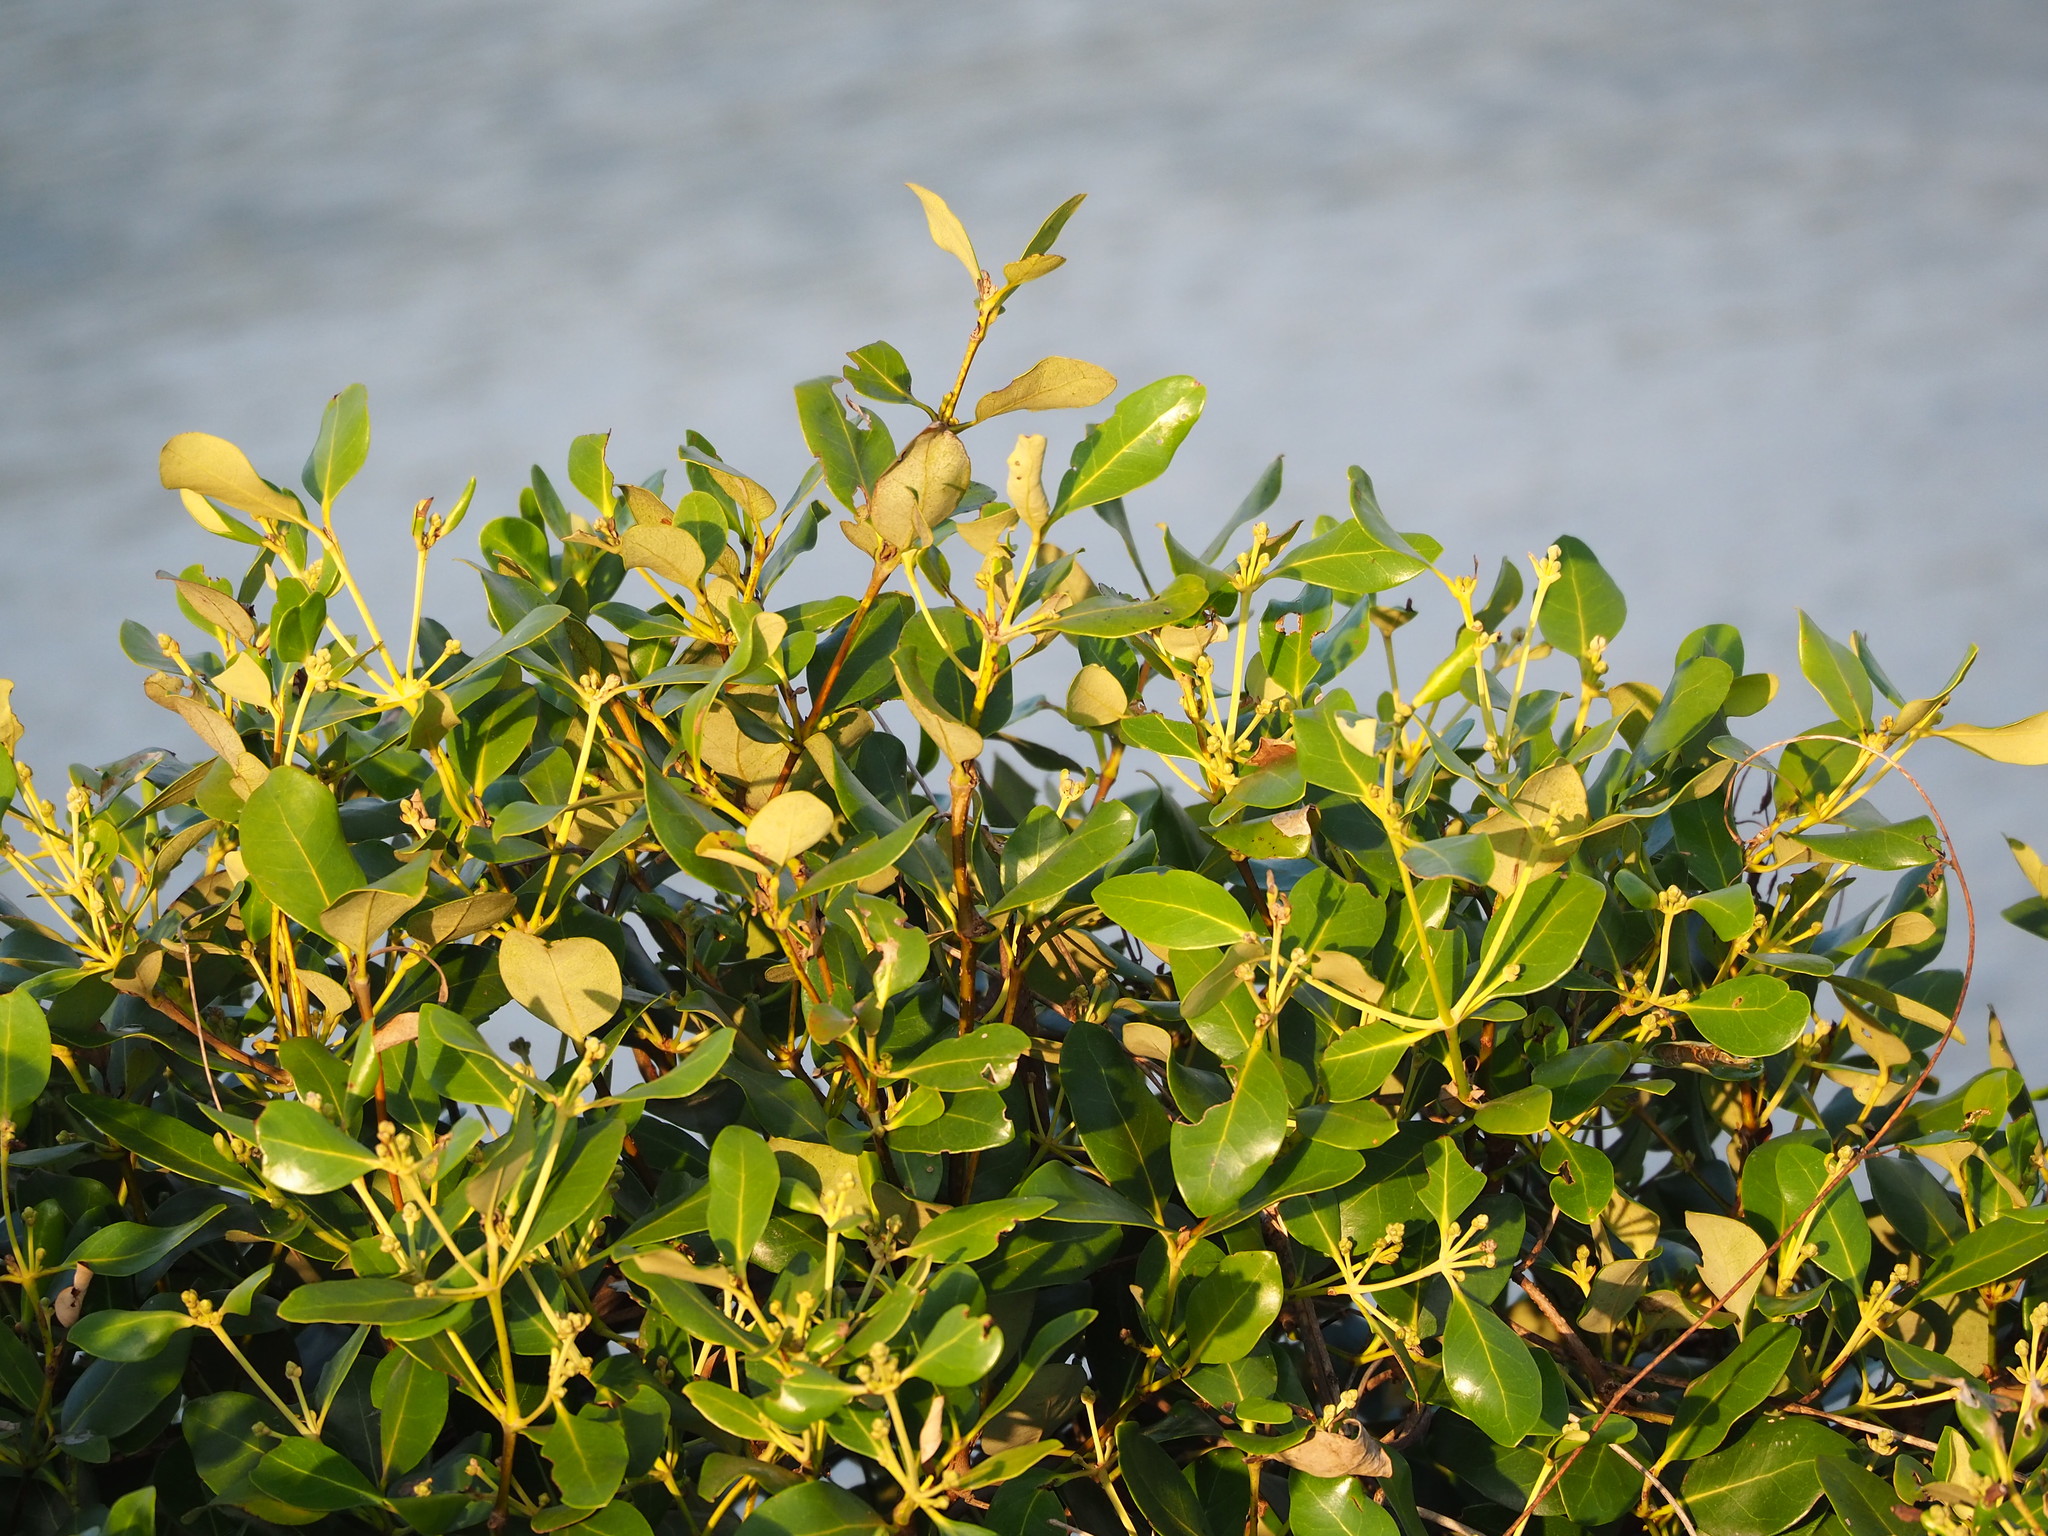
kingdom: Plantae
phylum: Tracheophyta
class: Magnoliopsida
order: Lamiales
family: Acanthaceae
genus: Avicennia
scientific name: Avicennia marina
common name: Gray mangrove
